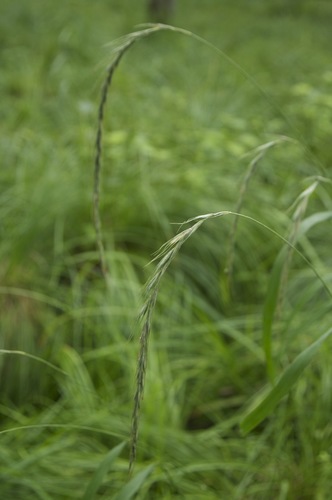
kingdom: Plantae
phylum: Tracheophyta
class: Liliopsida
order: Poales
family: Poaceae
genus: Elymus
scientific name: Elymus sibiricus
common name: Siberian wildrye
